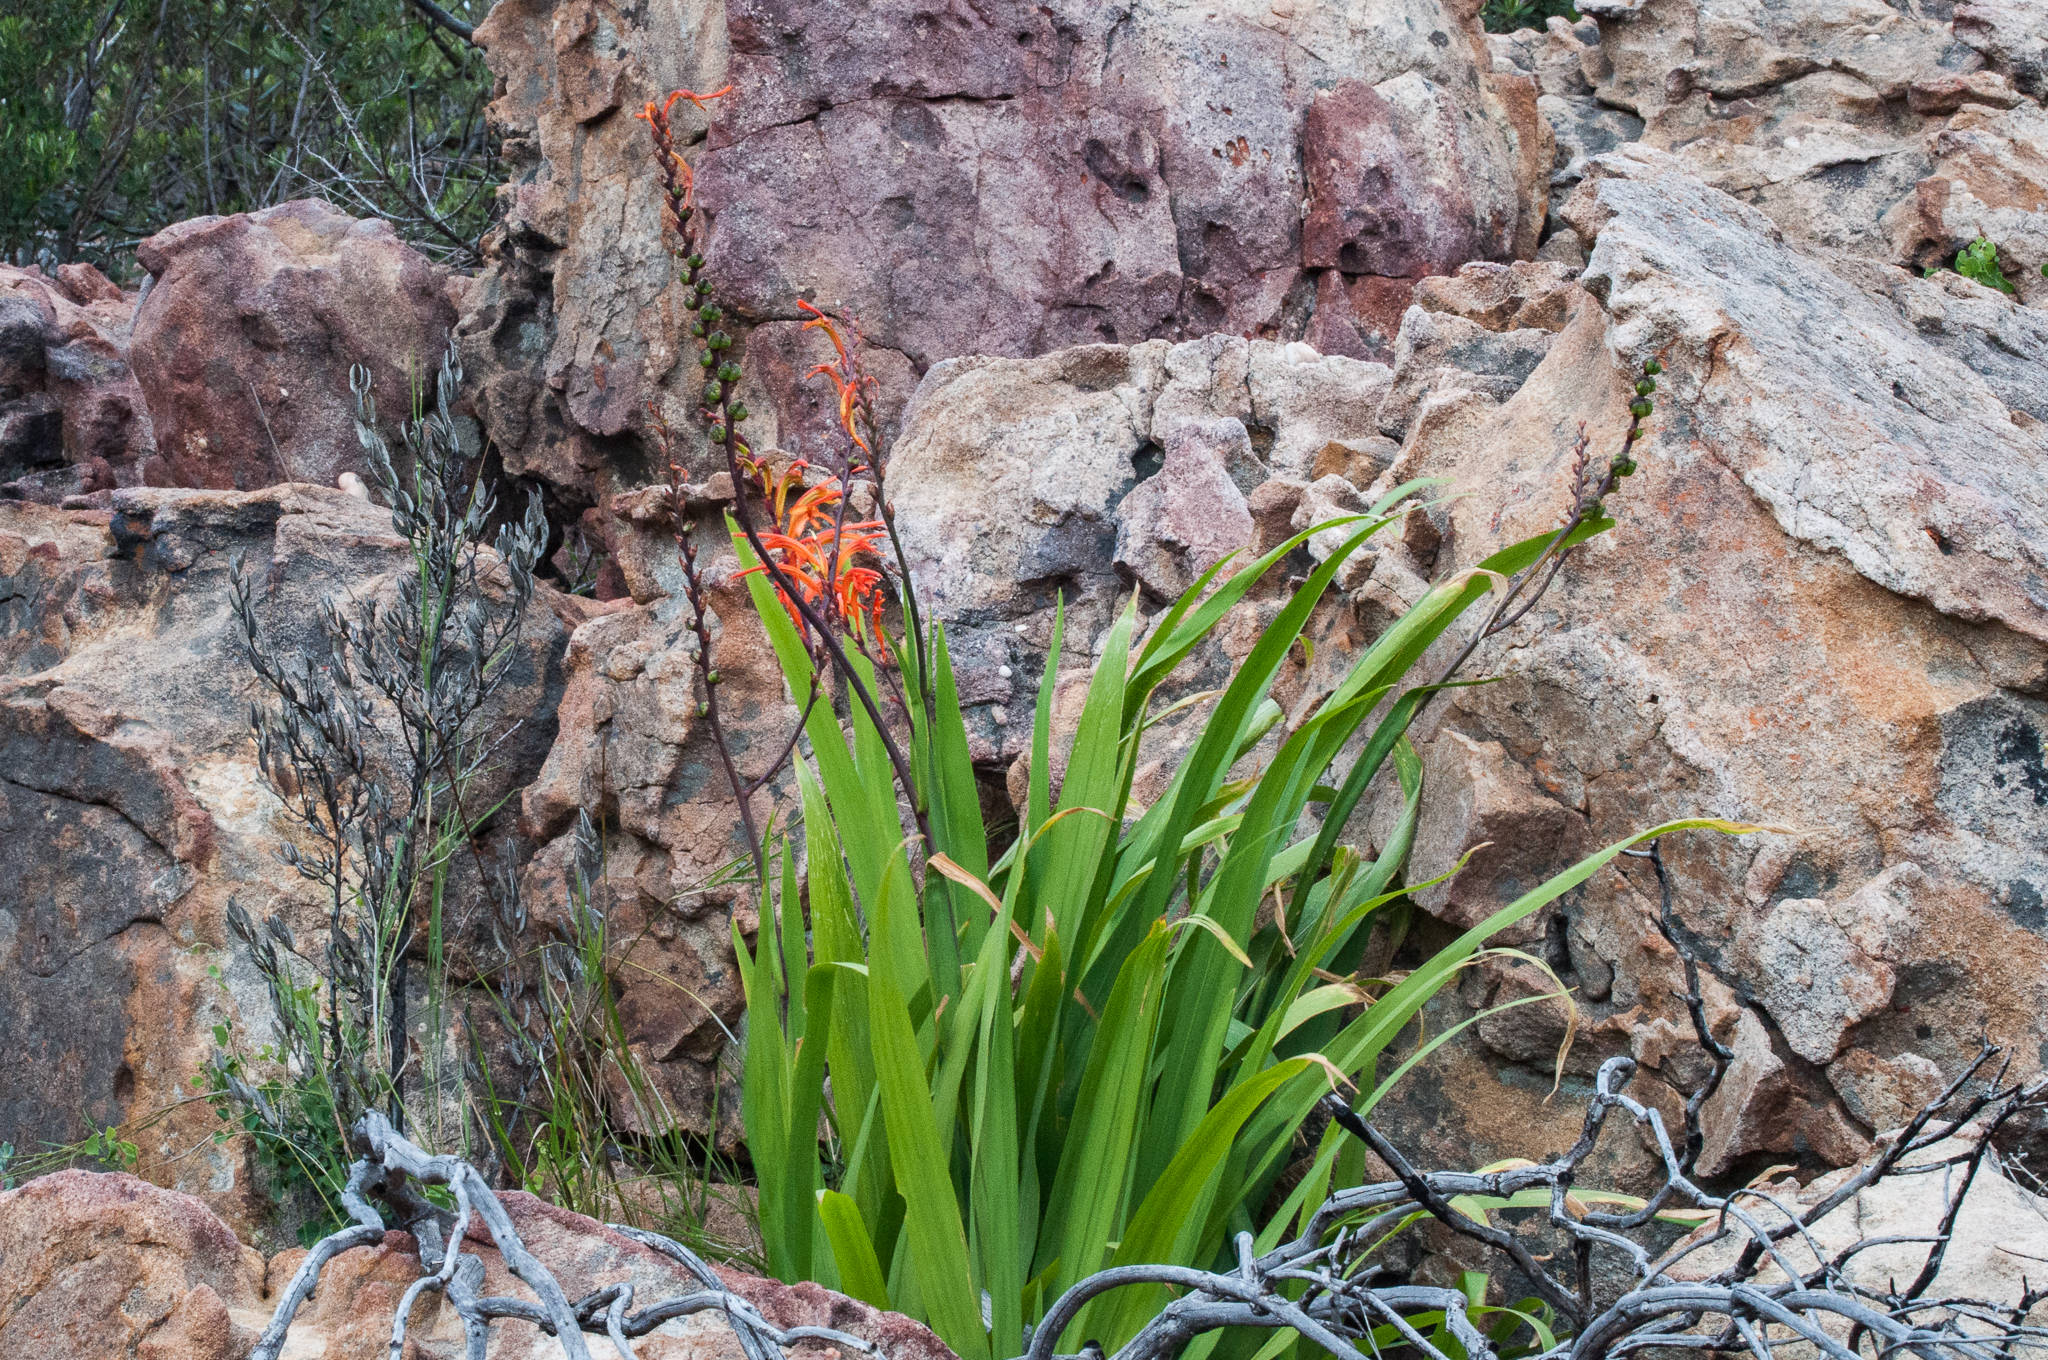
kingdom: Plantae
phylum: Tracheophyta
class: Liliopsida
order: Asparagales
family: Iridaceae
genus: Chasmanthe
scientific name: Chasmanthe floribunda
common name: African cornflag
